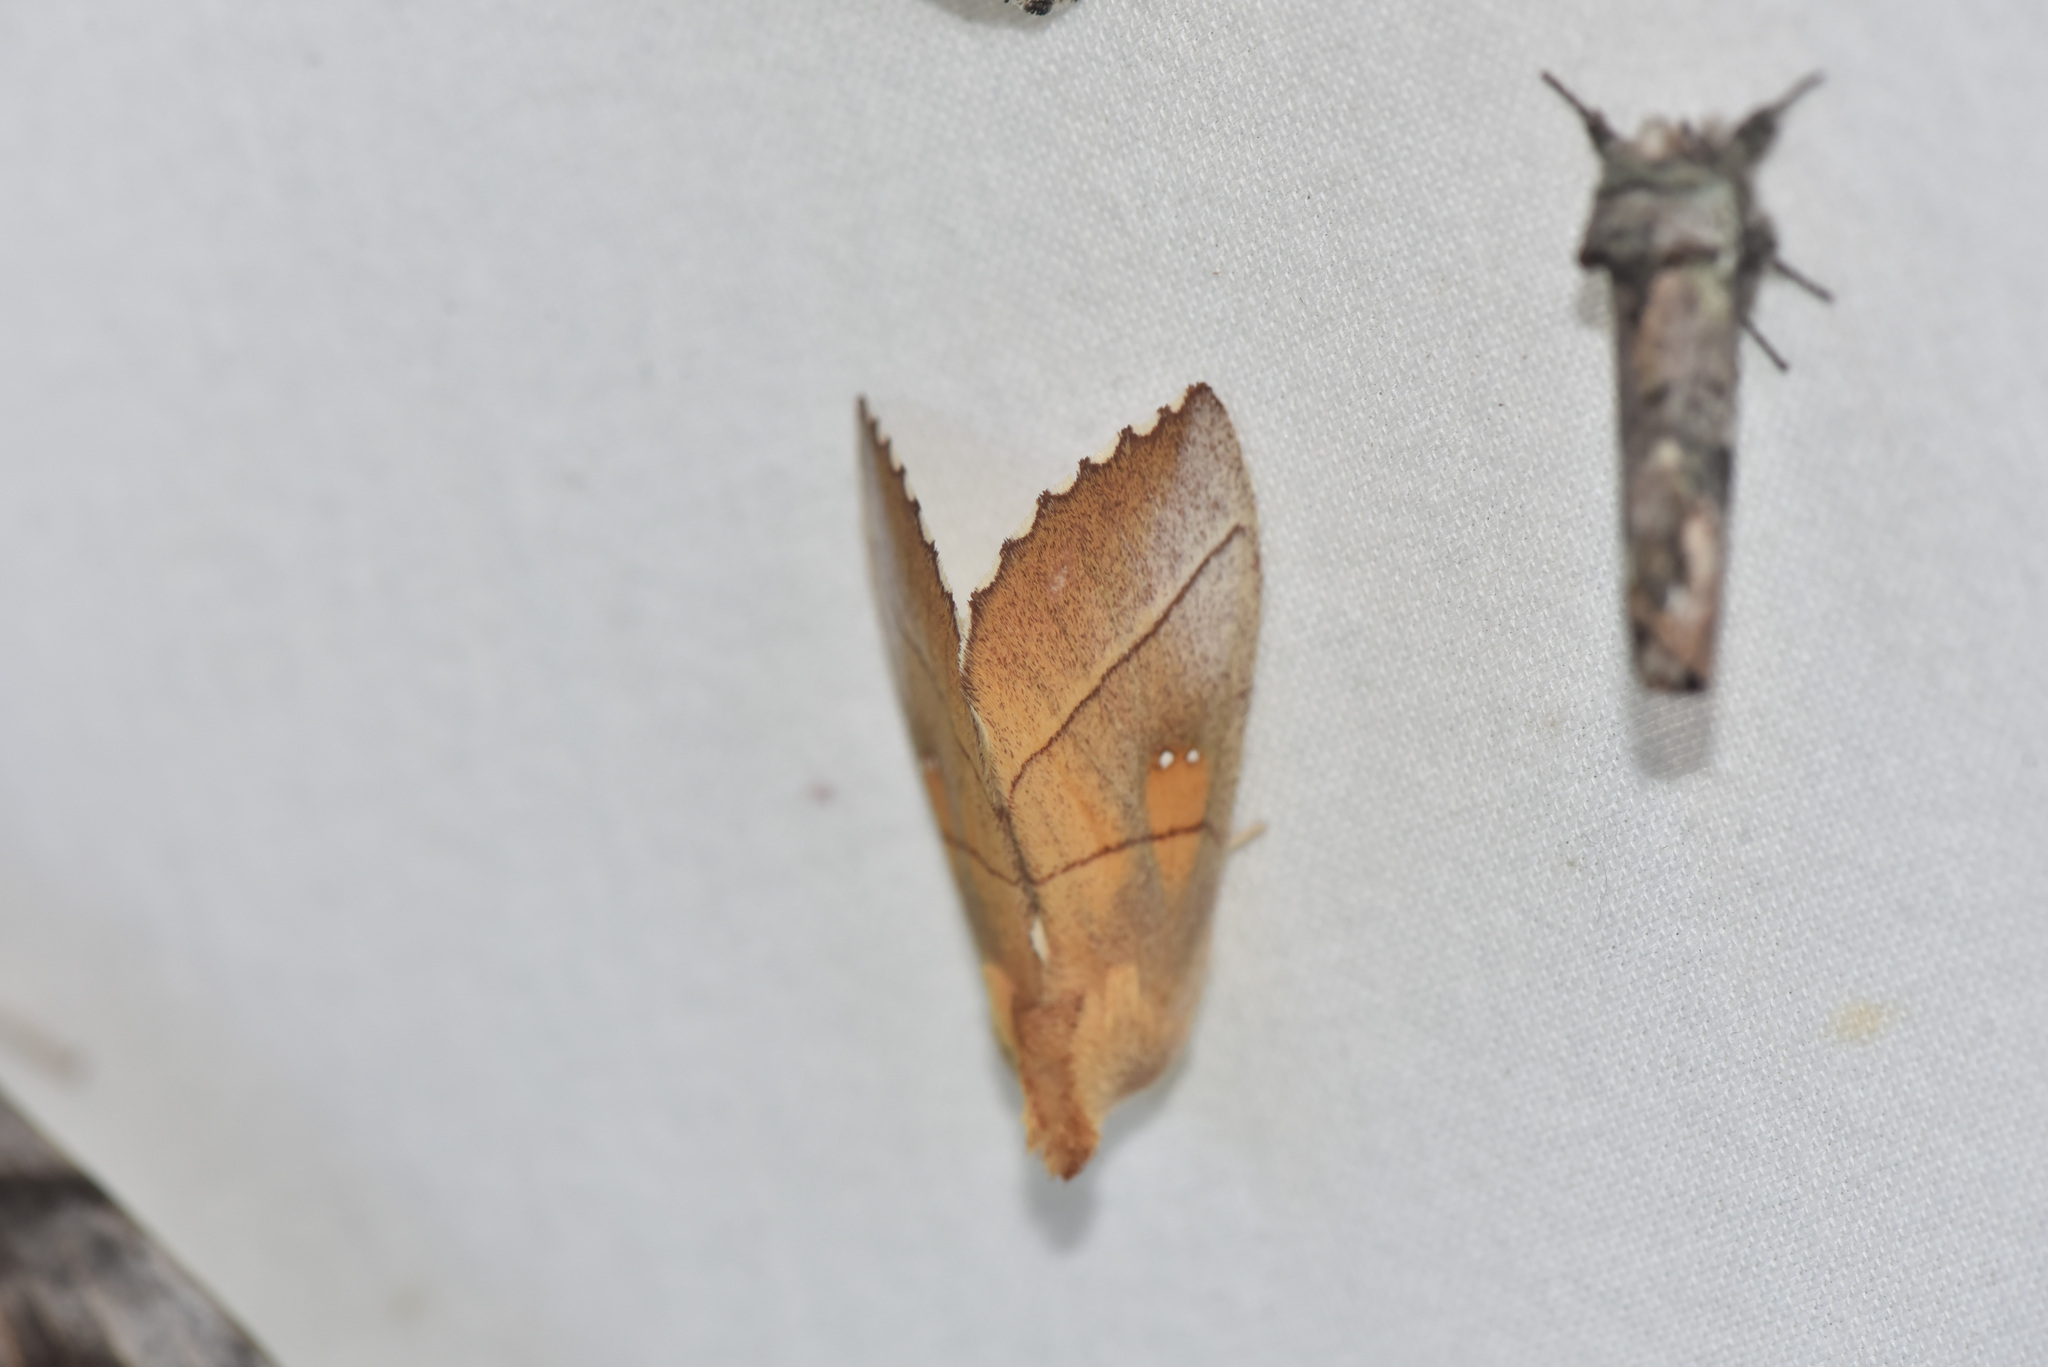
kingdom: Animalia
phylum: Arthropoda
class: Insecta
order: Lepidoptera
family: Notodontidae
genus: Nadata
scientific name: Nadata gibbosa
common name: White-dotted prominent
